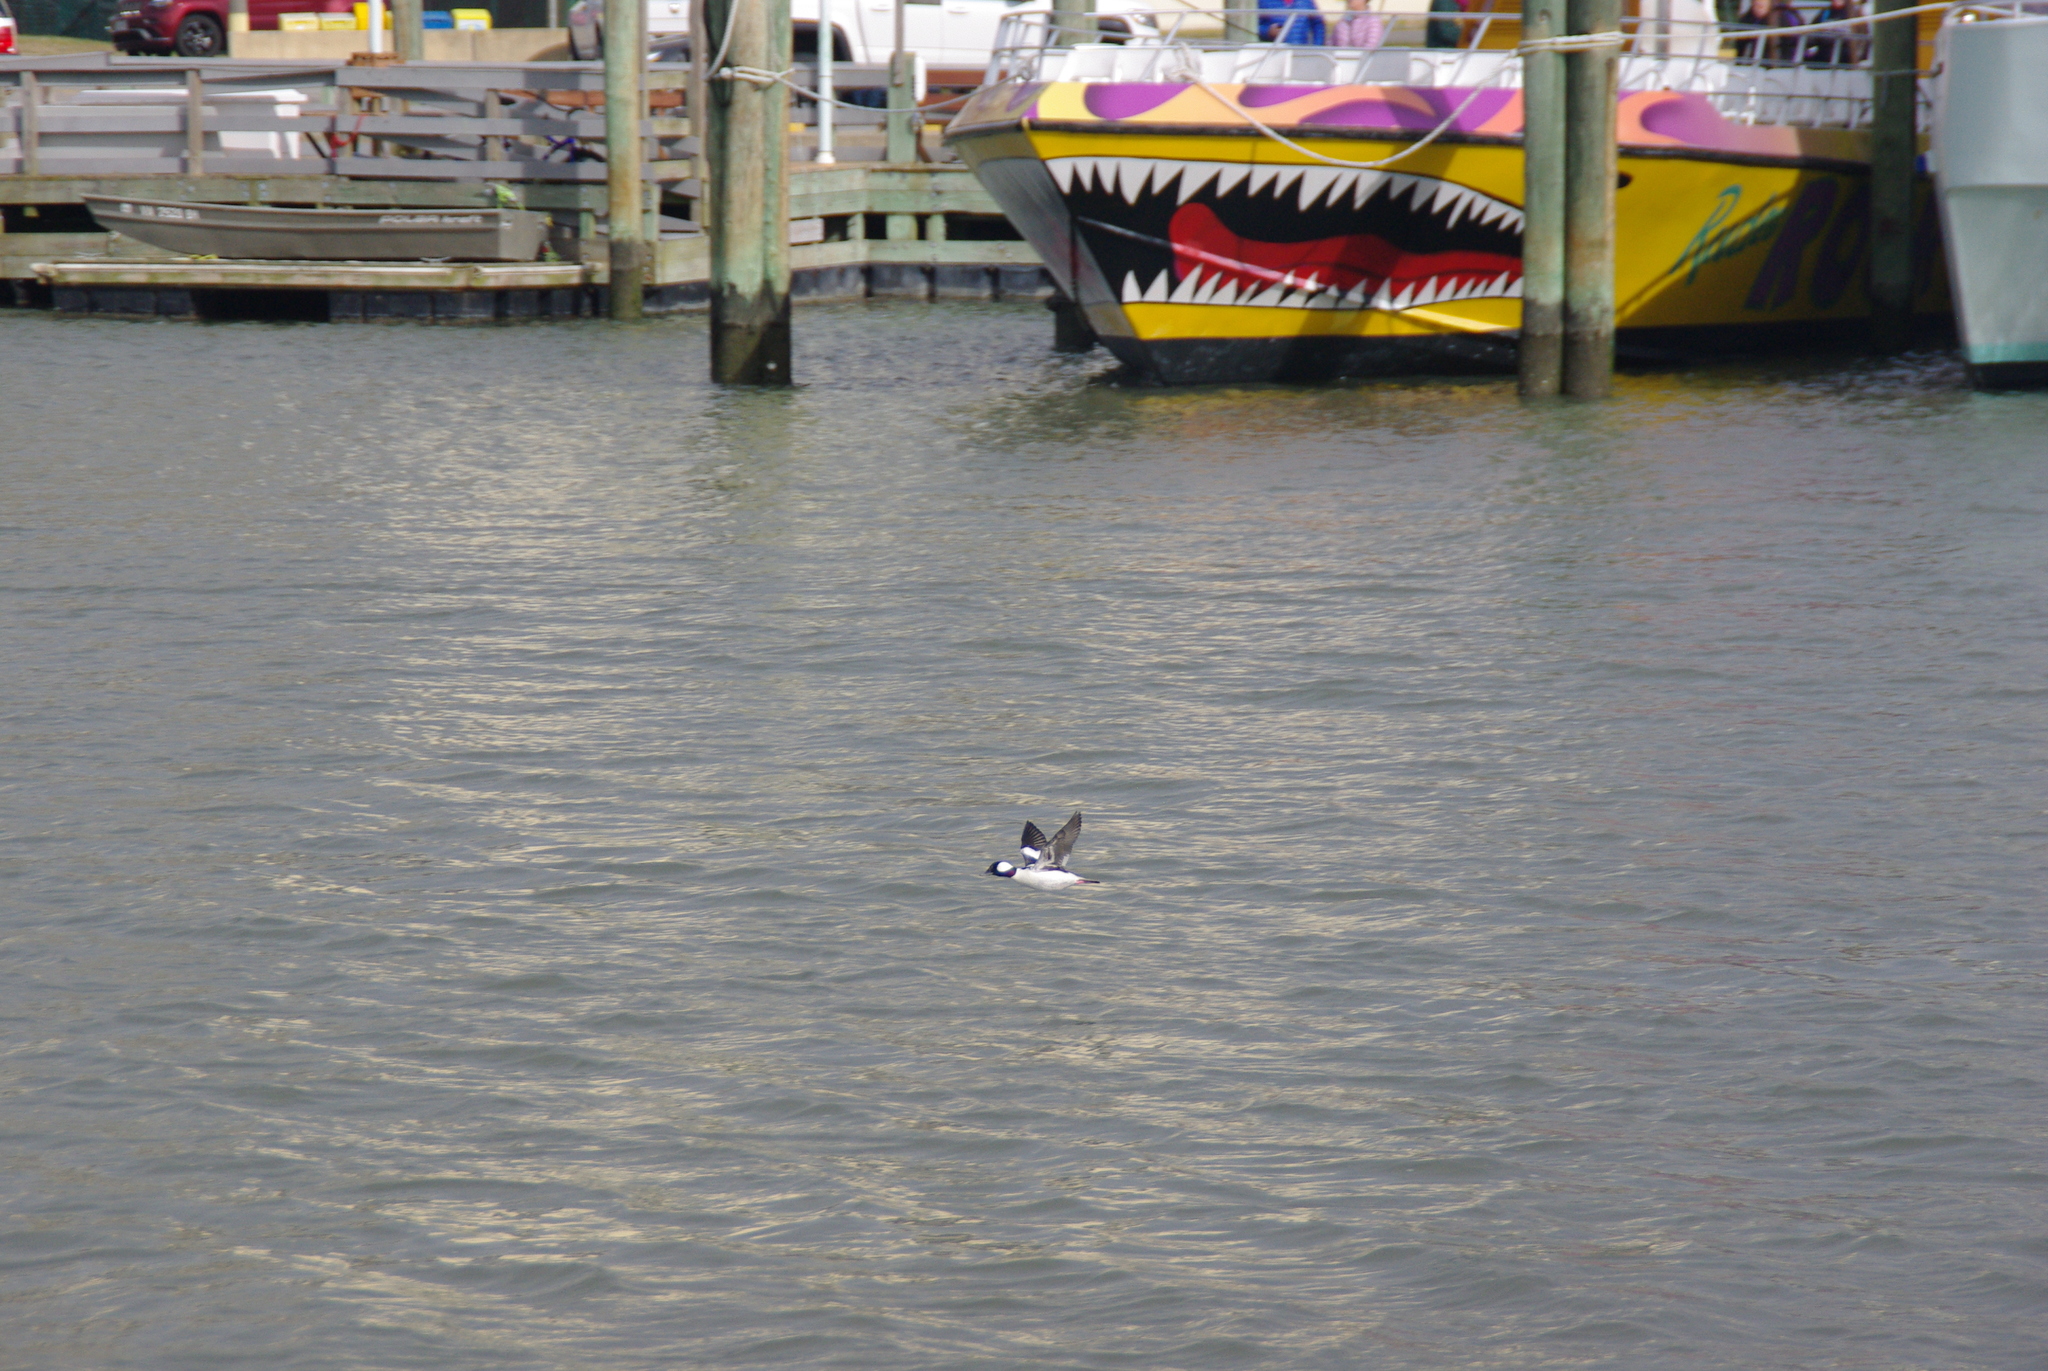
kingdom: Animalia
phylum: Chordata
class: Aves
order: Anseriformes
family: Anatidae
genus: Bucephala
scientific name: Bucephala albeola
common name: Bufflehead
